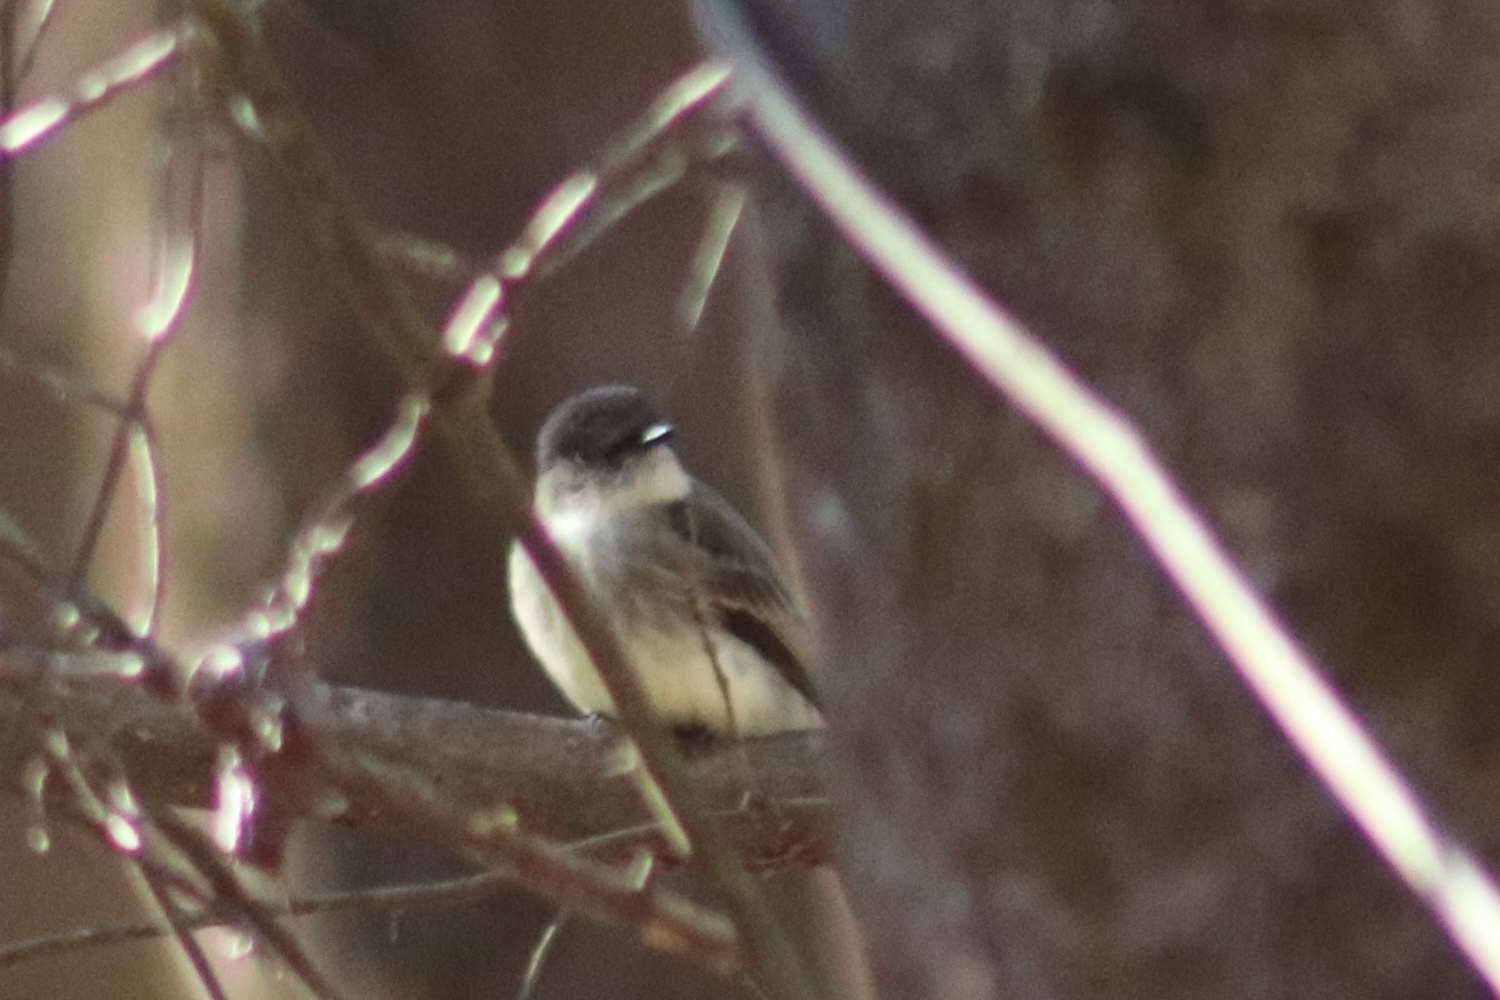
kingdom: Animalia
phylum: Chordata
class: Aves
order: Passeriformes
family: Tyrannidae
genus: Sayornis
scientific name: Sayornis phoebe
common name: Eastern phoebe
